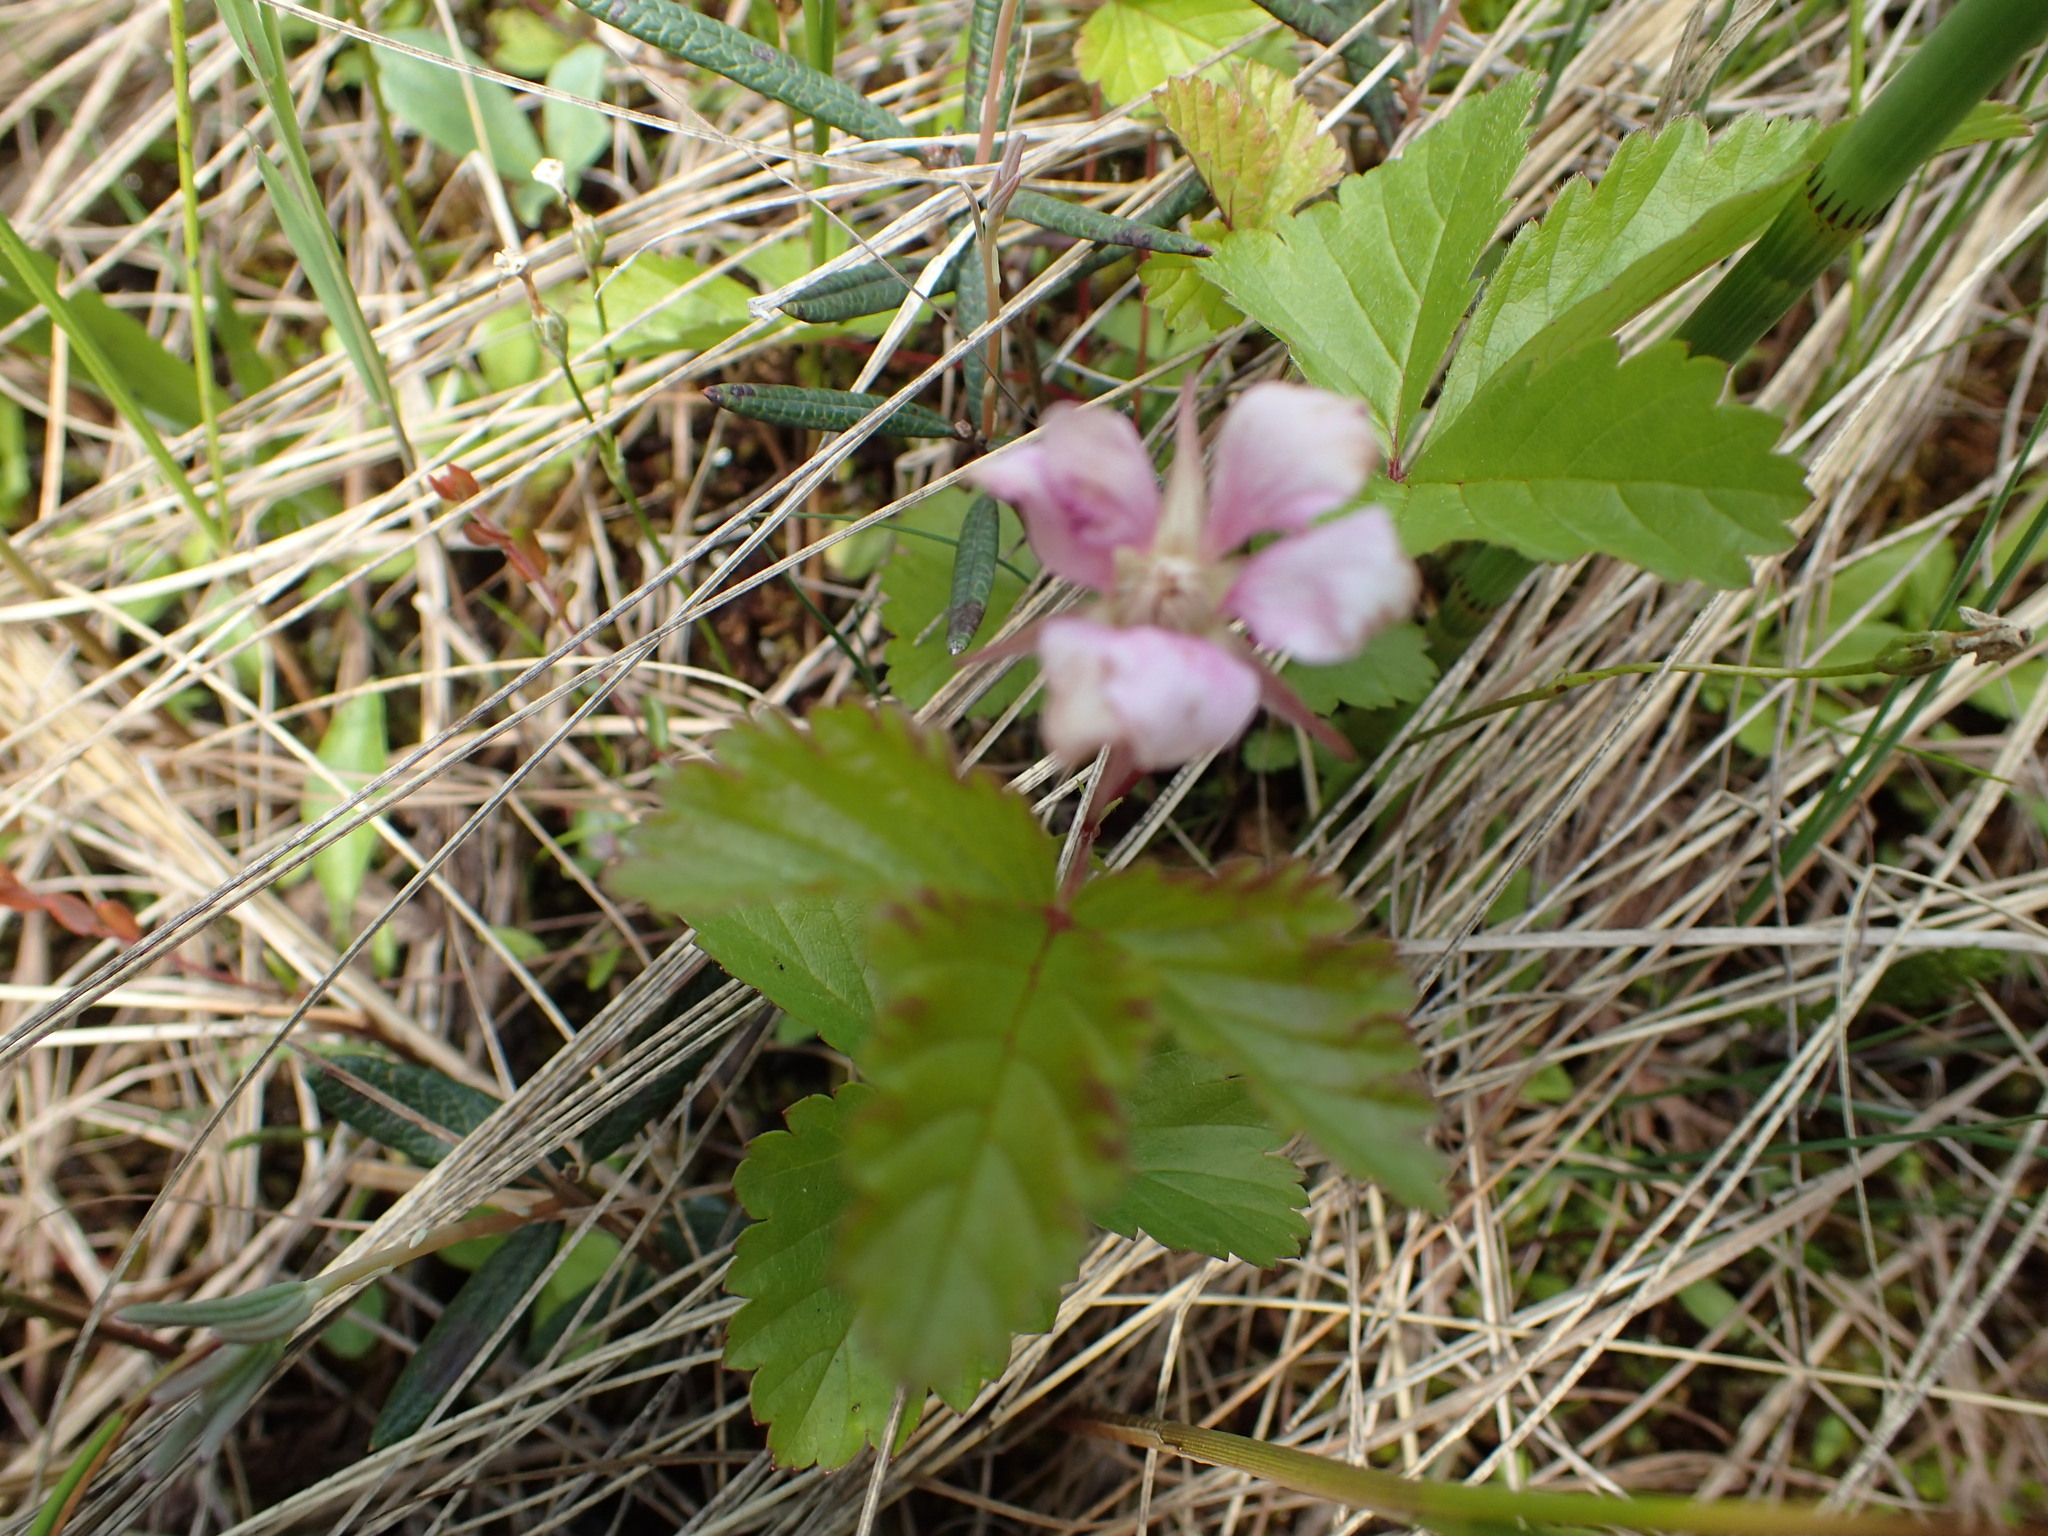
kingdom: Plantae
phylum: Tracheophyta
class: Magnoliopsida
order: Rosales
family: Rosaceae
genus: Rubus
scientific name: Rubus arcticus
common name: Arctic bramble
